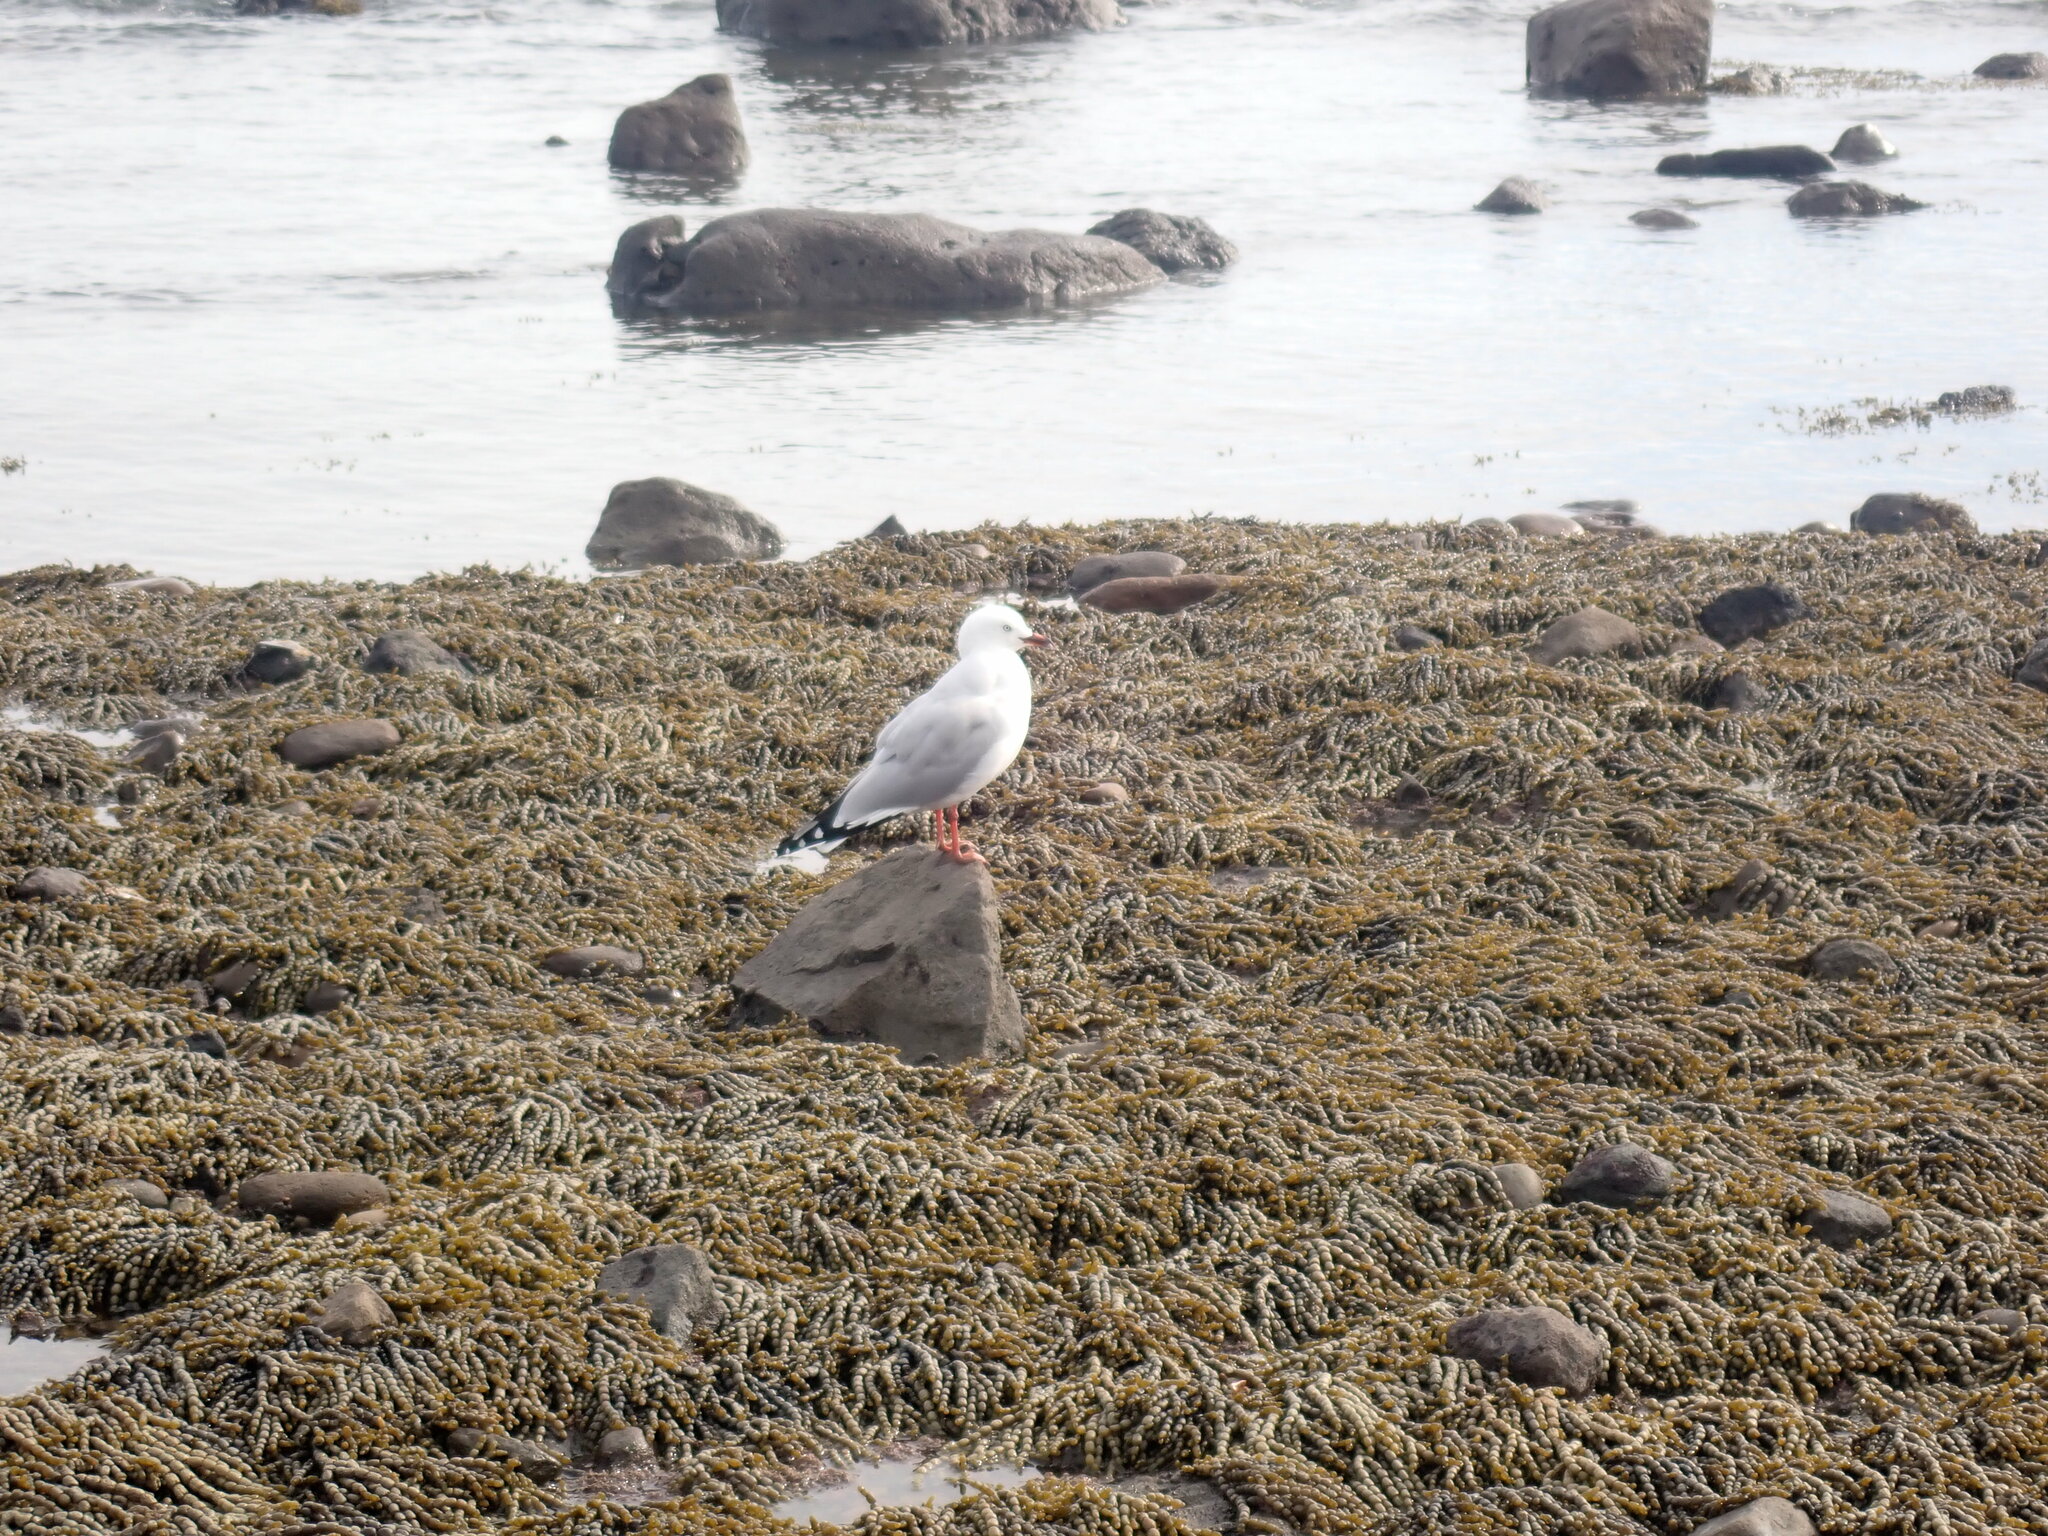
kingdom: Animalia
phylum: Chordata
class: Aves
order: Charadriiformes
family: Laridae
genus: Chroicocephalus
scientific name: Chroicocephalus novaehollandiae
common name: Silver gull
